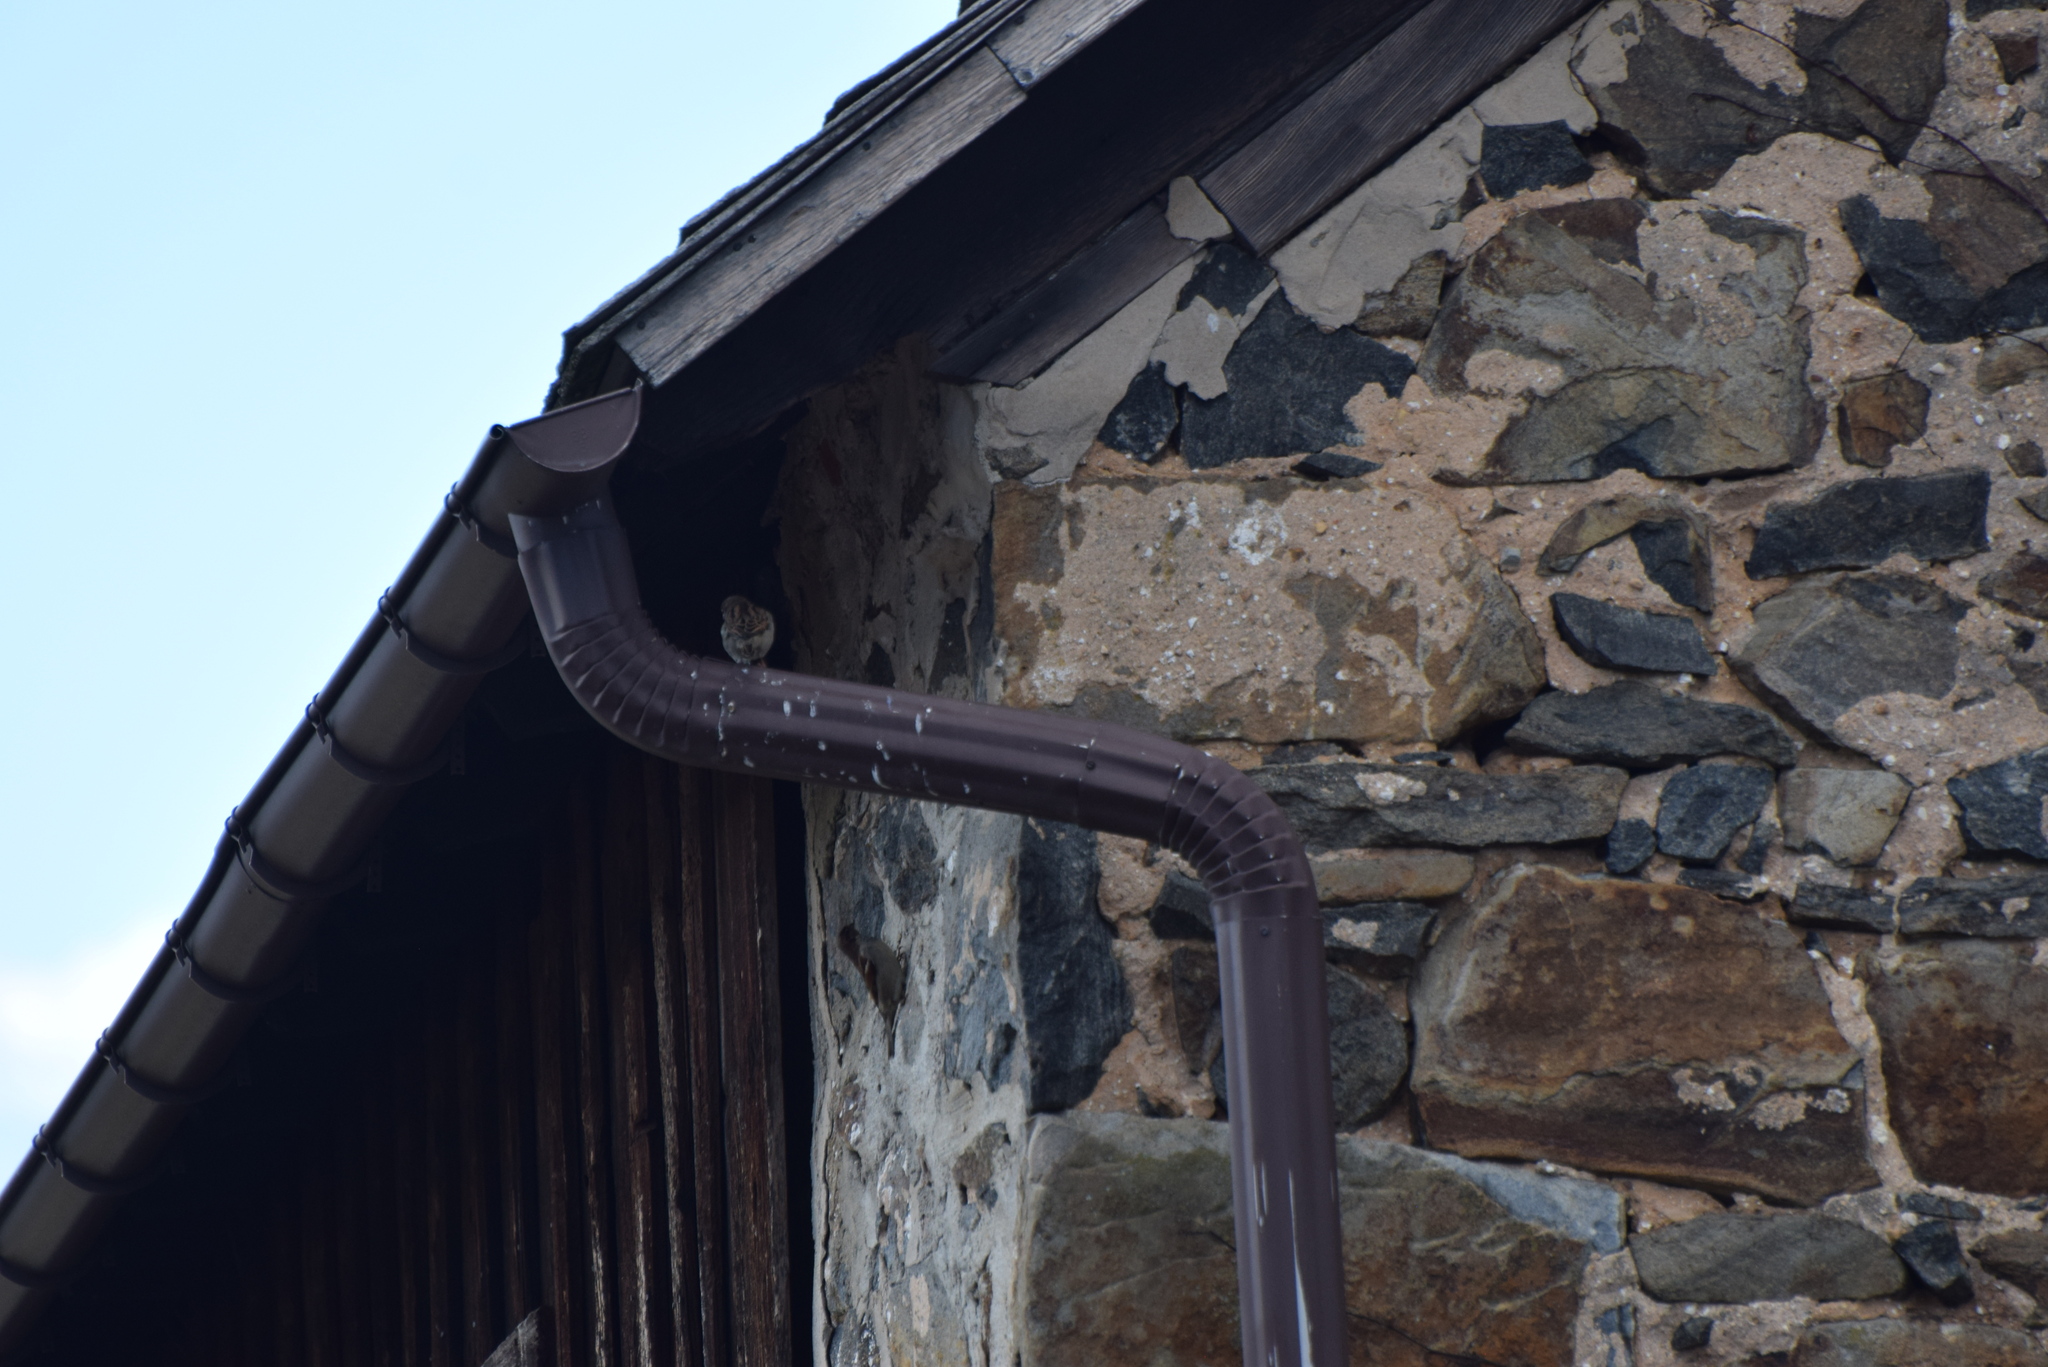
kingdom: Animalia
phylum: Chordata
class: Aves
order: Passeriformes
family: Passeridae
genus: Passer
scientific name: Passer domesticus
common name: House sparrow
